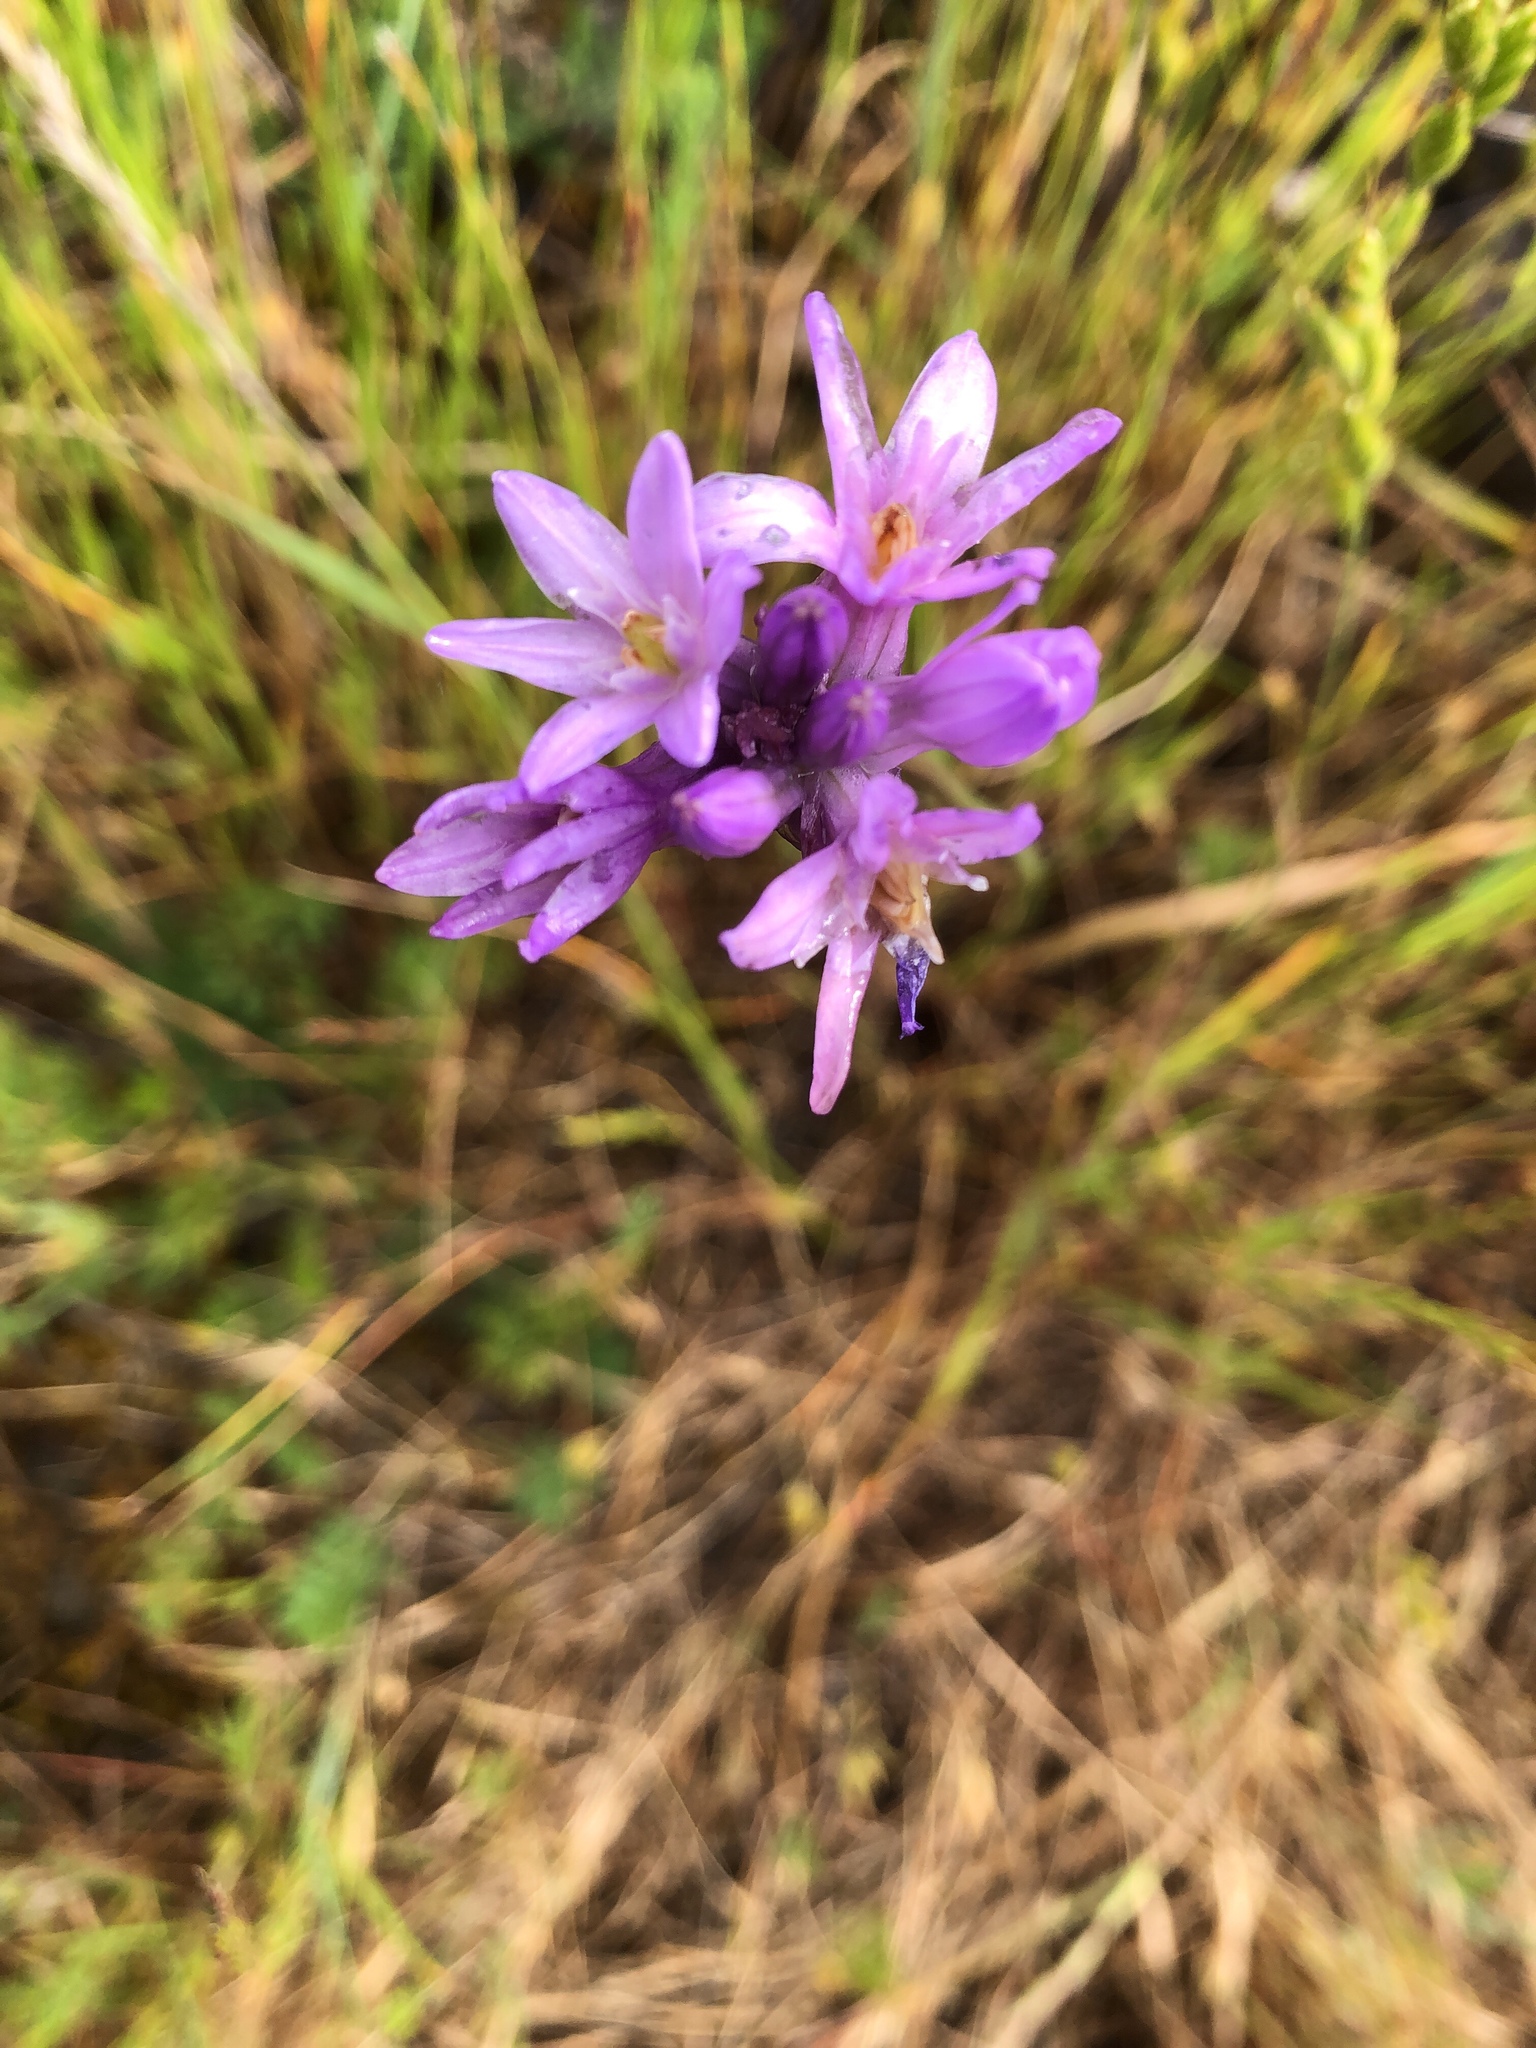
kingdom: Plantae
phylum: Tracheophyta
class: Liliopsida
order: Asparagales
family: Asparagaceae
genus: Dichelostemma
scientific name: Dichelostemma congestum
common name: Fork-tooth ookow
